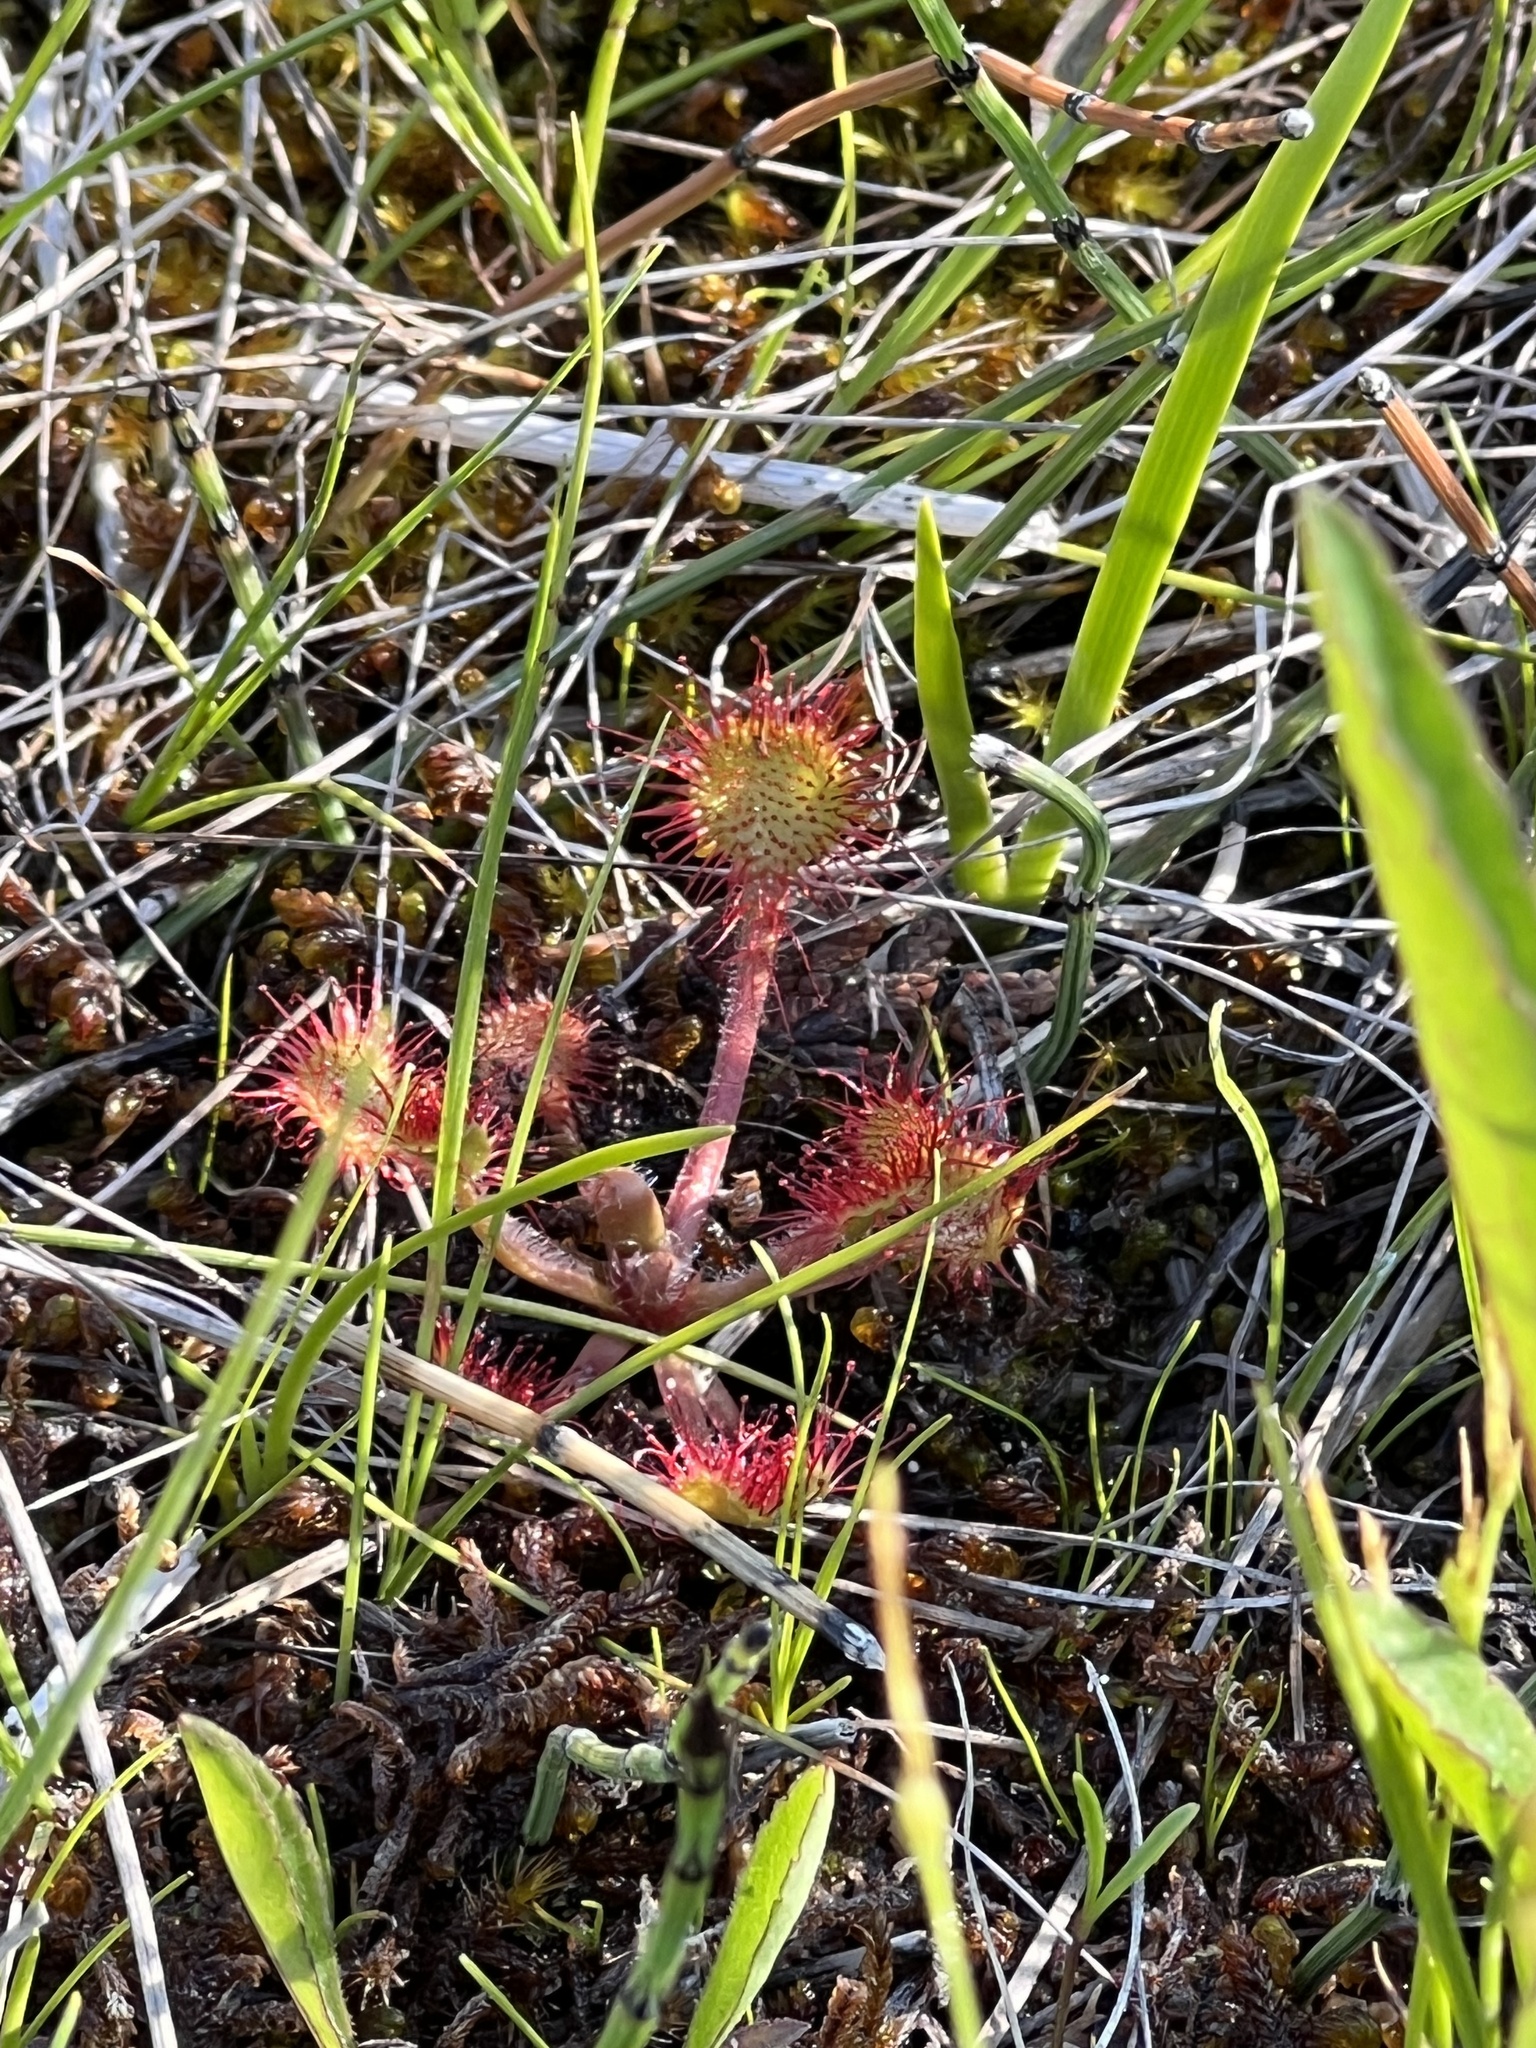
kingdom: Plantae
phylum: Tracheophyta
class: Magnoliopsida
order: Caryophyllales
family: Droseraceae
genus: Drosera
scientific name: Drosera rotundifolia
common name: Round-leaved sundew
